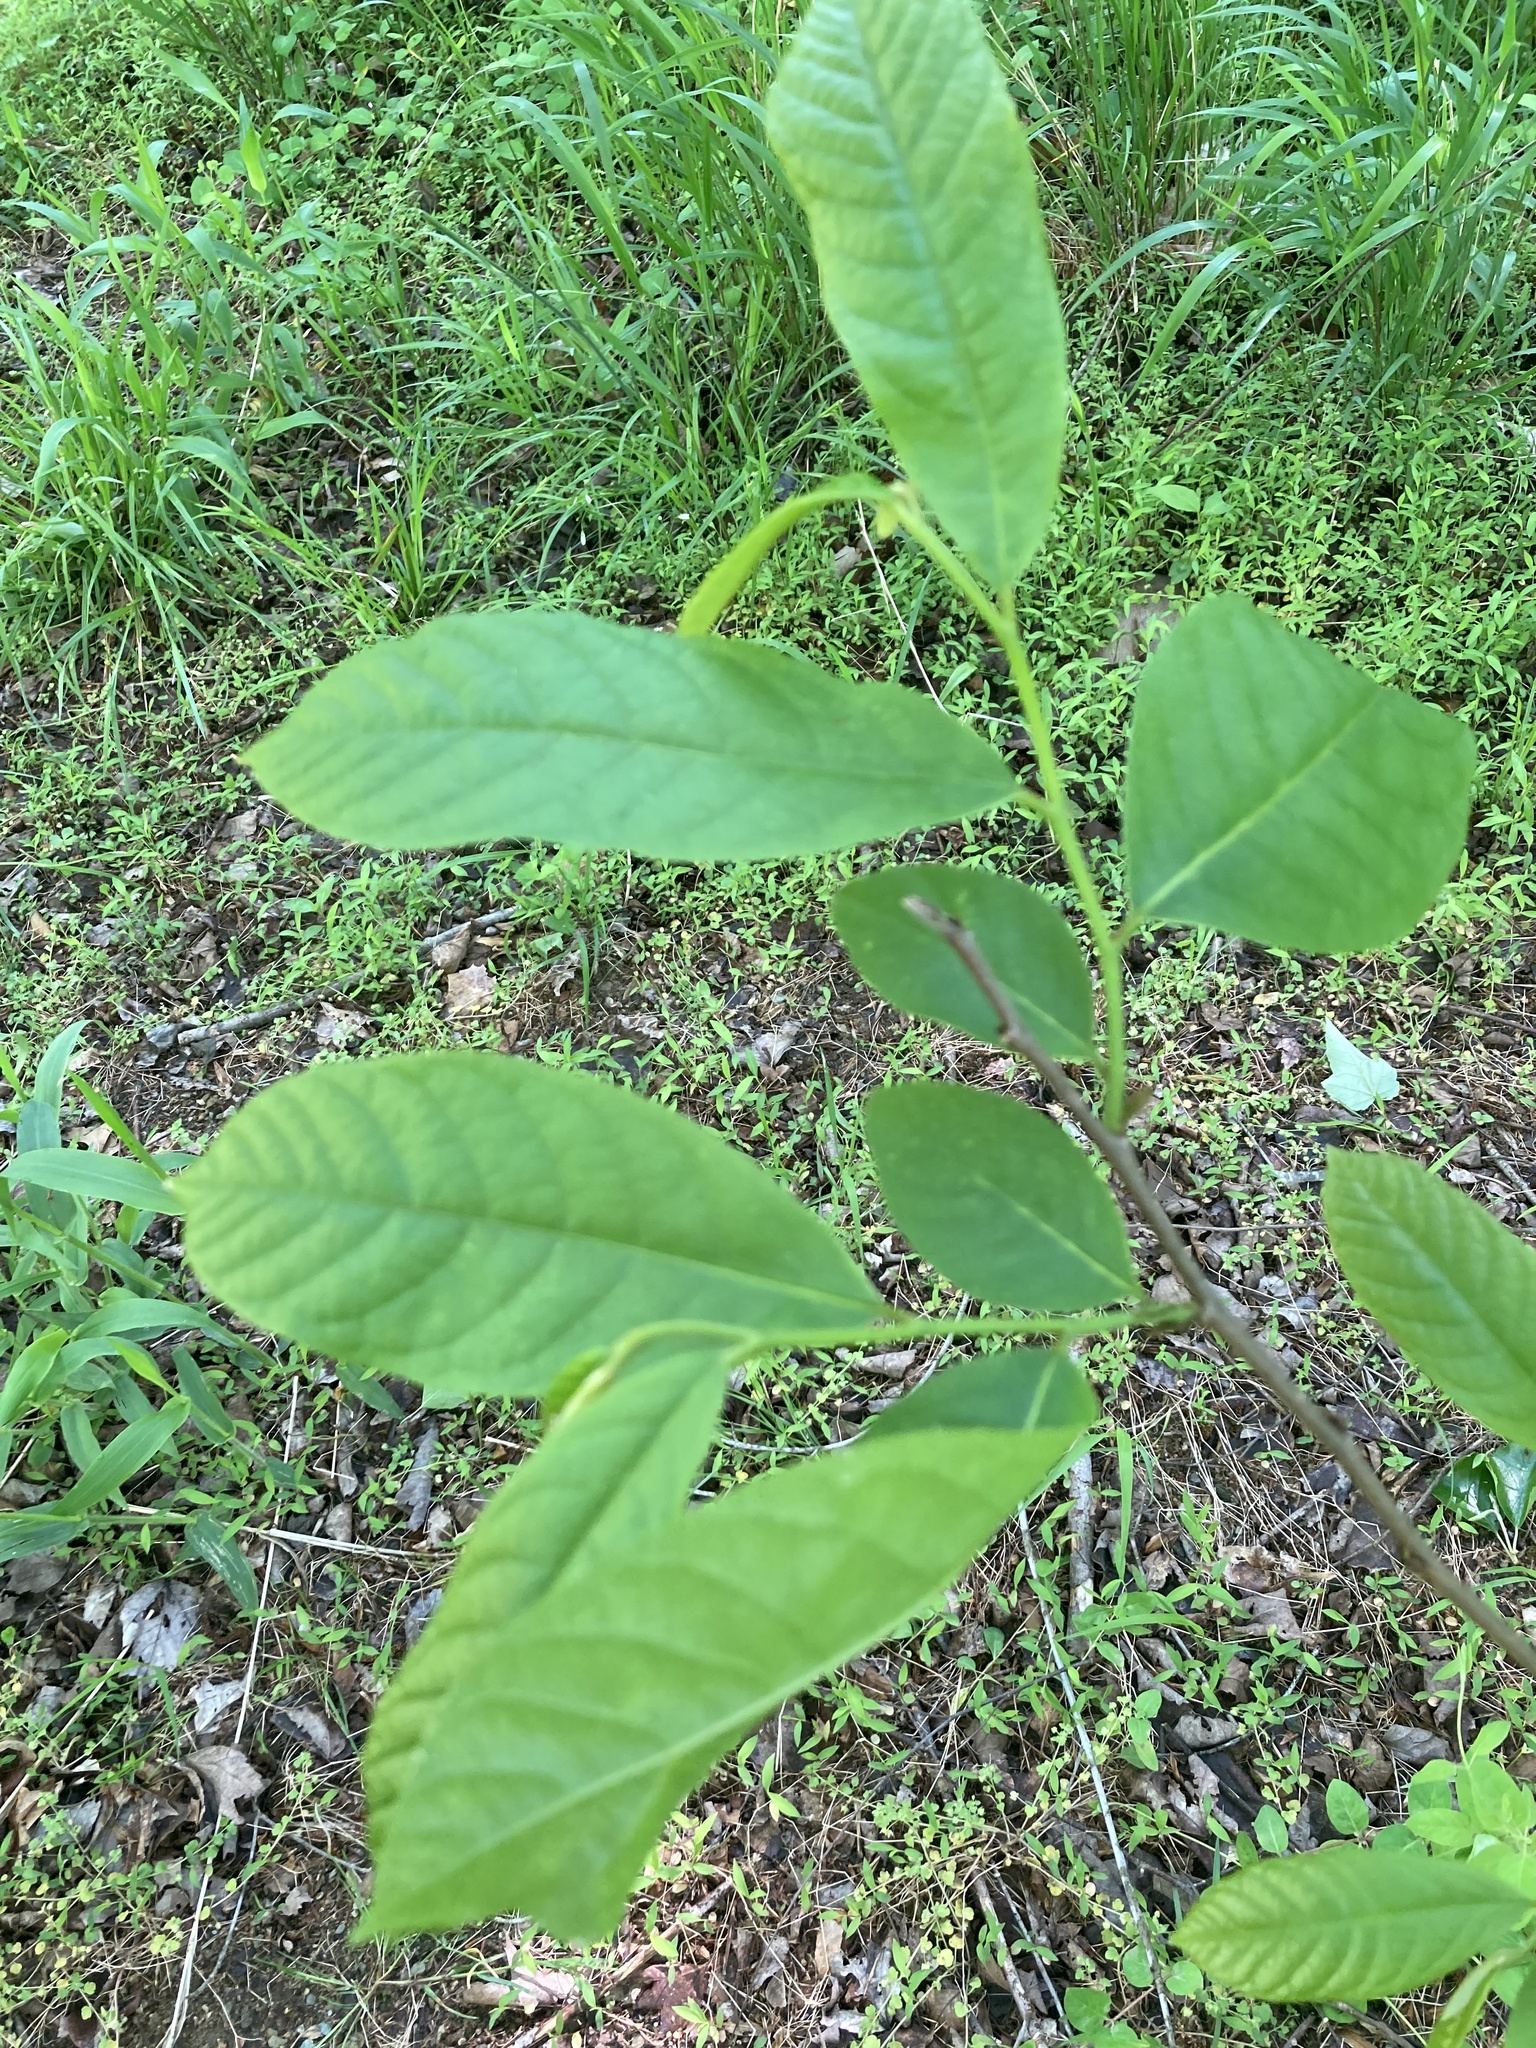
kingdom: Plantae
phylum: Tracheophyta
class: Magnoliopsida
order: Magnoliales
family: Annonaceae
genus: Asimina
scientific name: Asimina triloba
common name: Dog-banana
